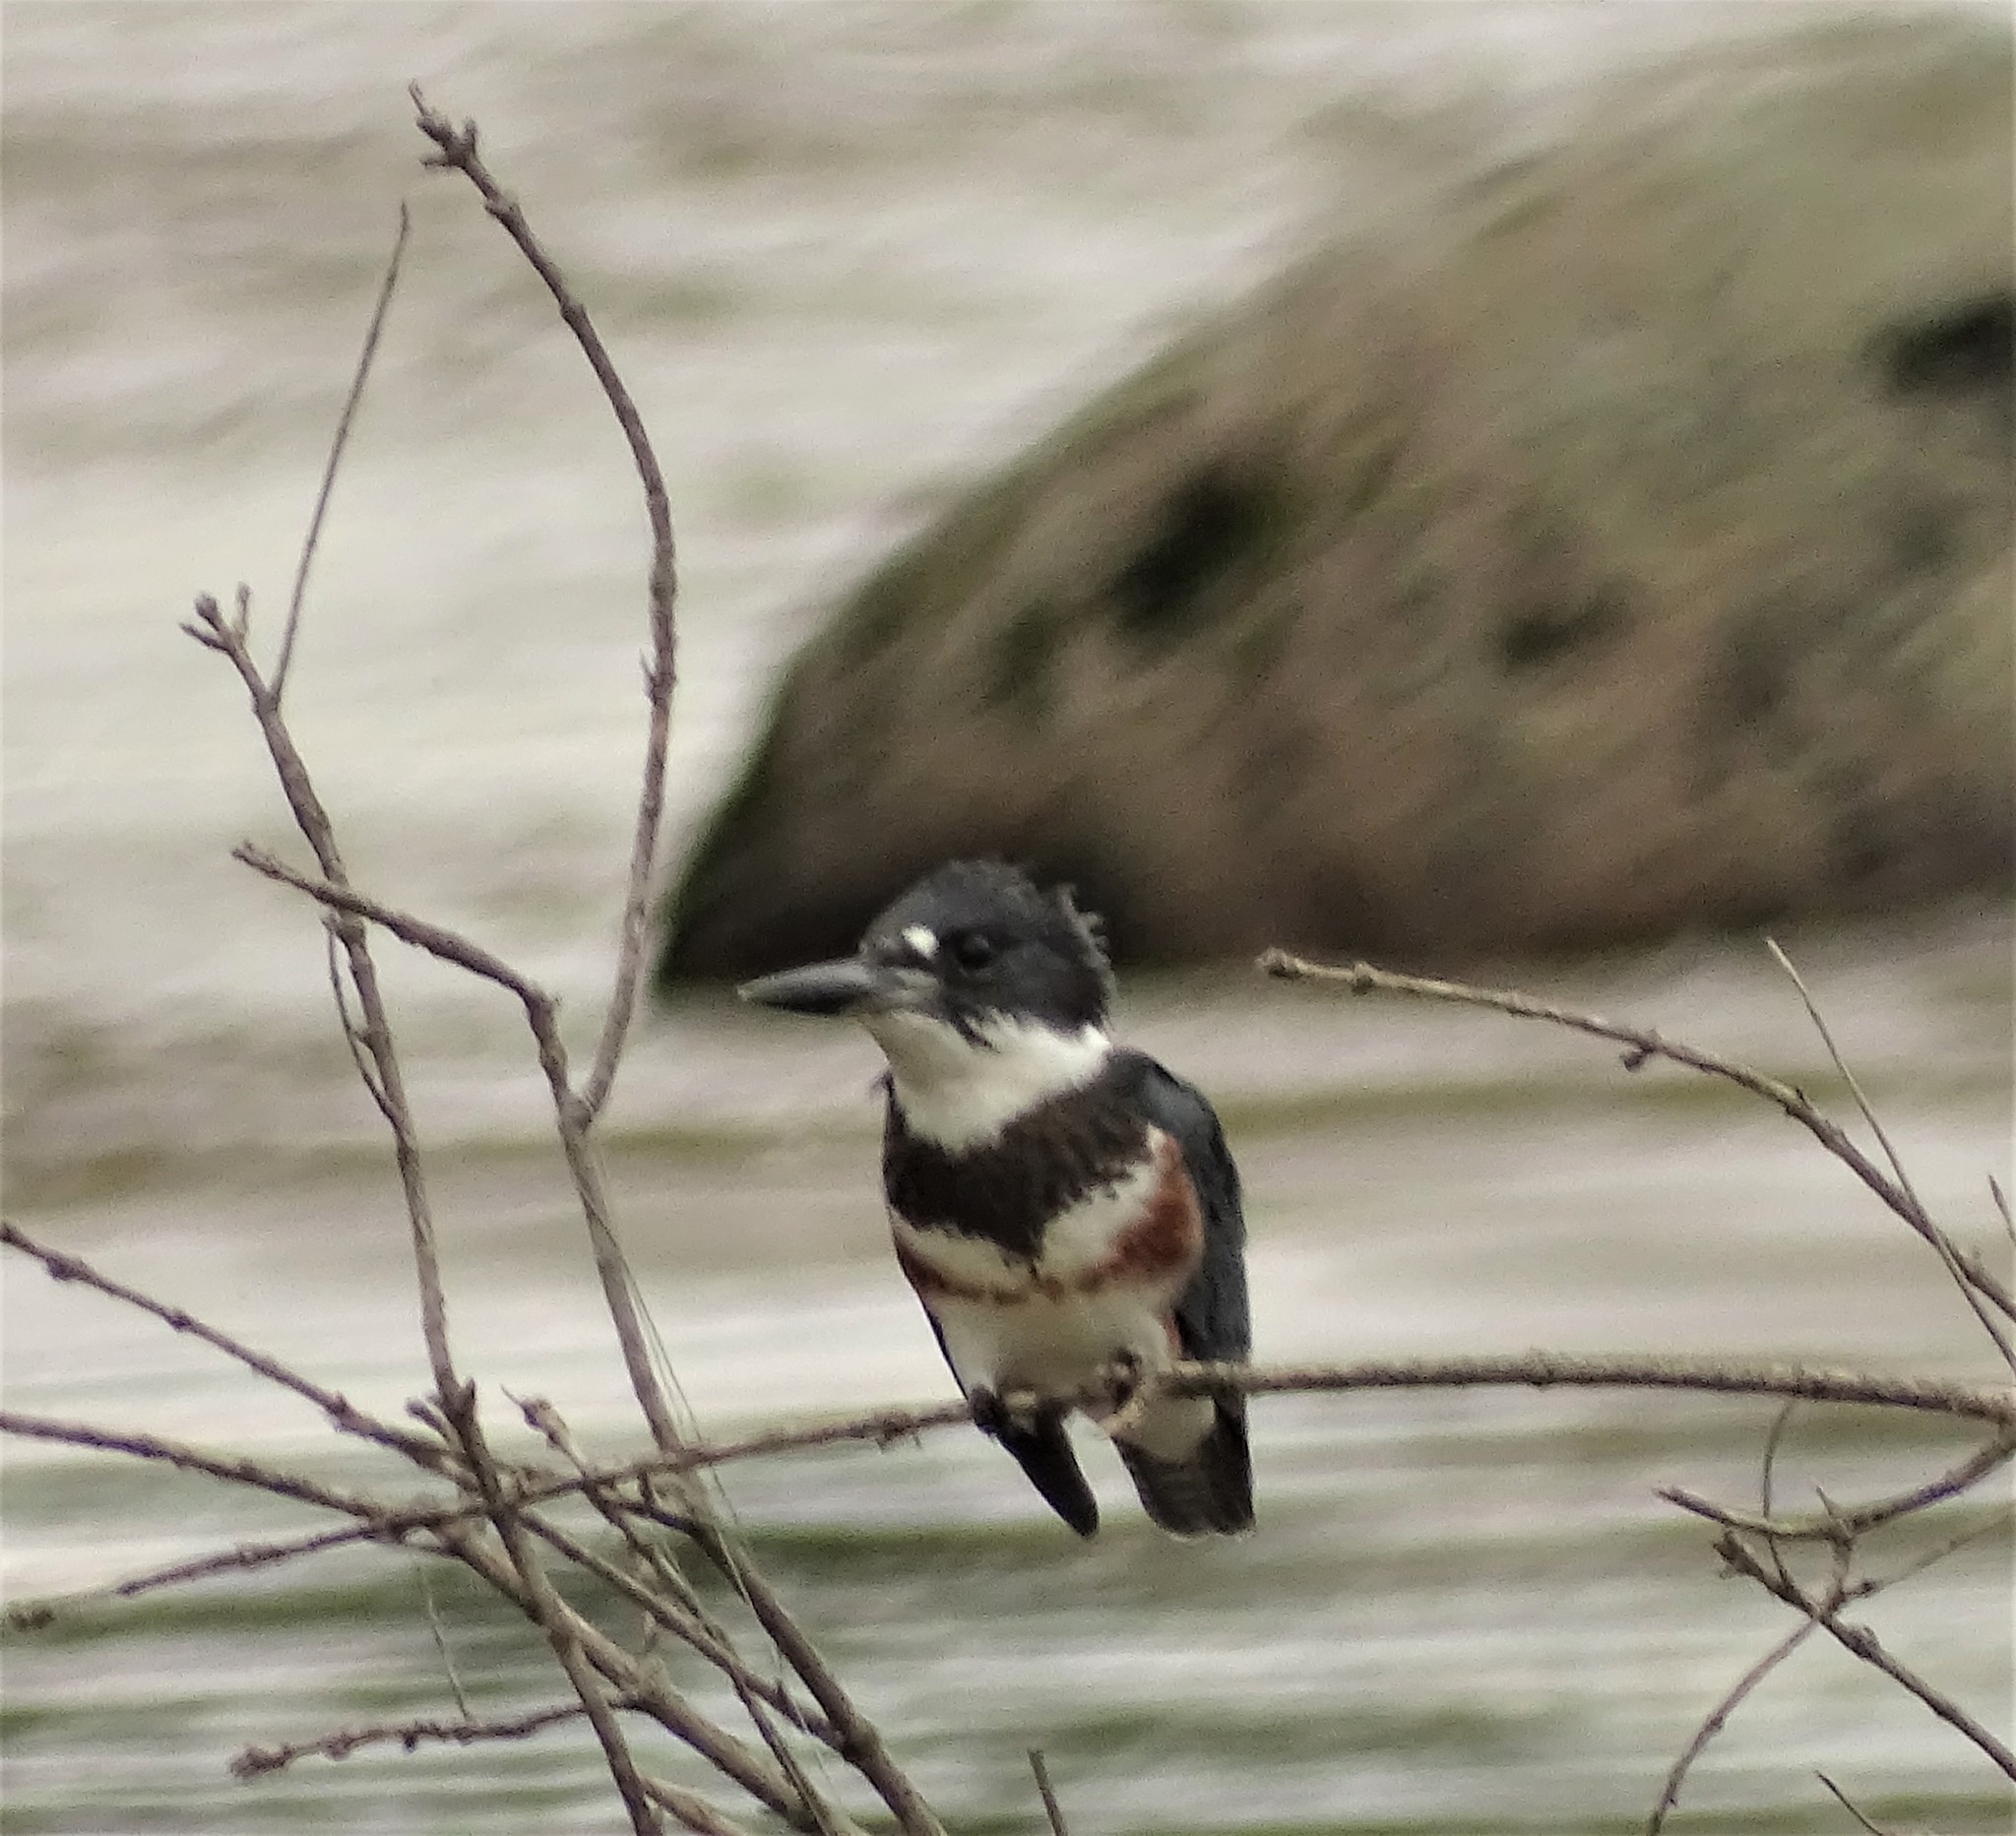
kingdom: Animalia
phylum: Chordata
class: Aves
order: Coraciiformes
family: Alcedinidae
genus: Megaceryle
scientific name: Megaceryle alcyon
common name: Belted kingfisher
